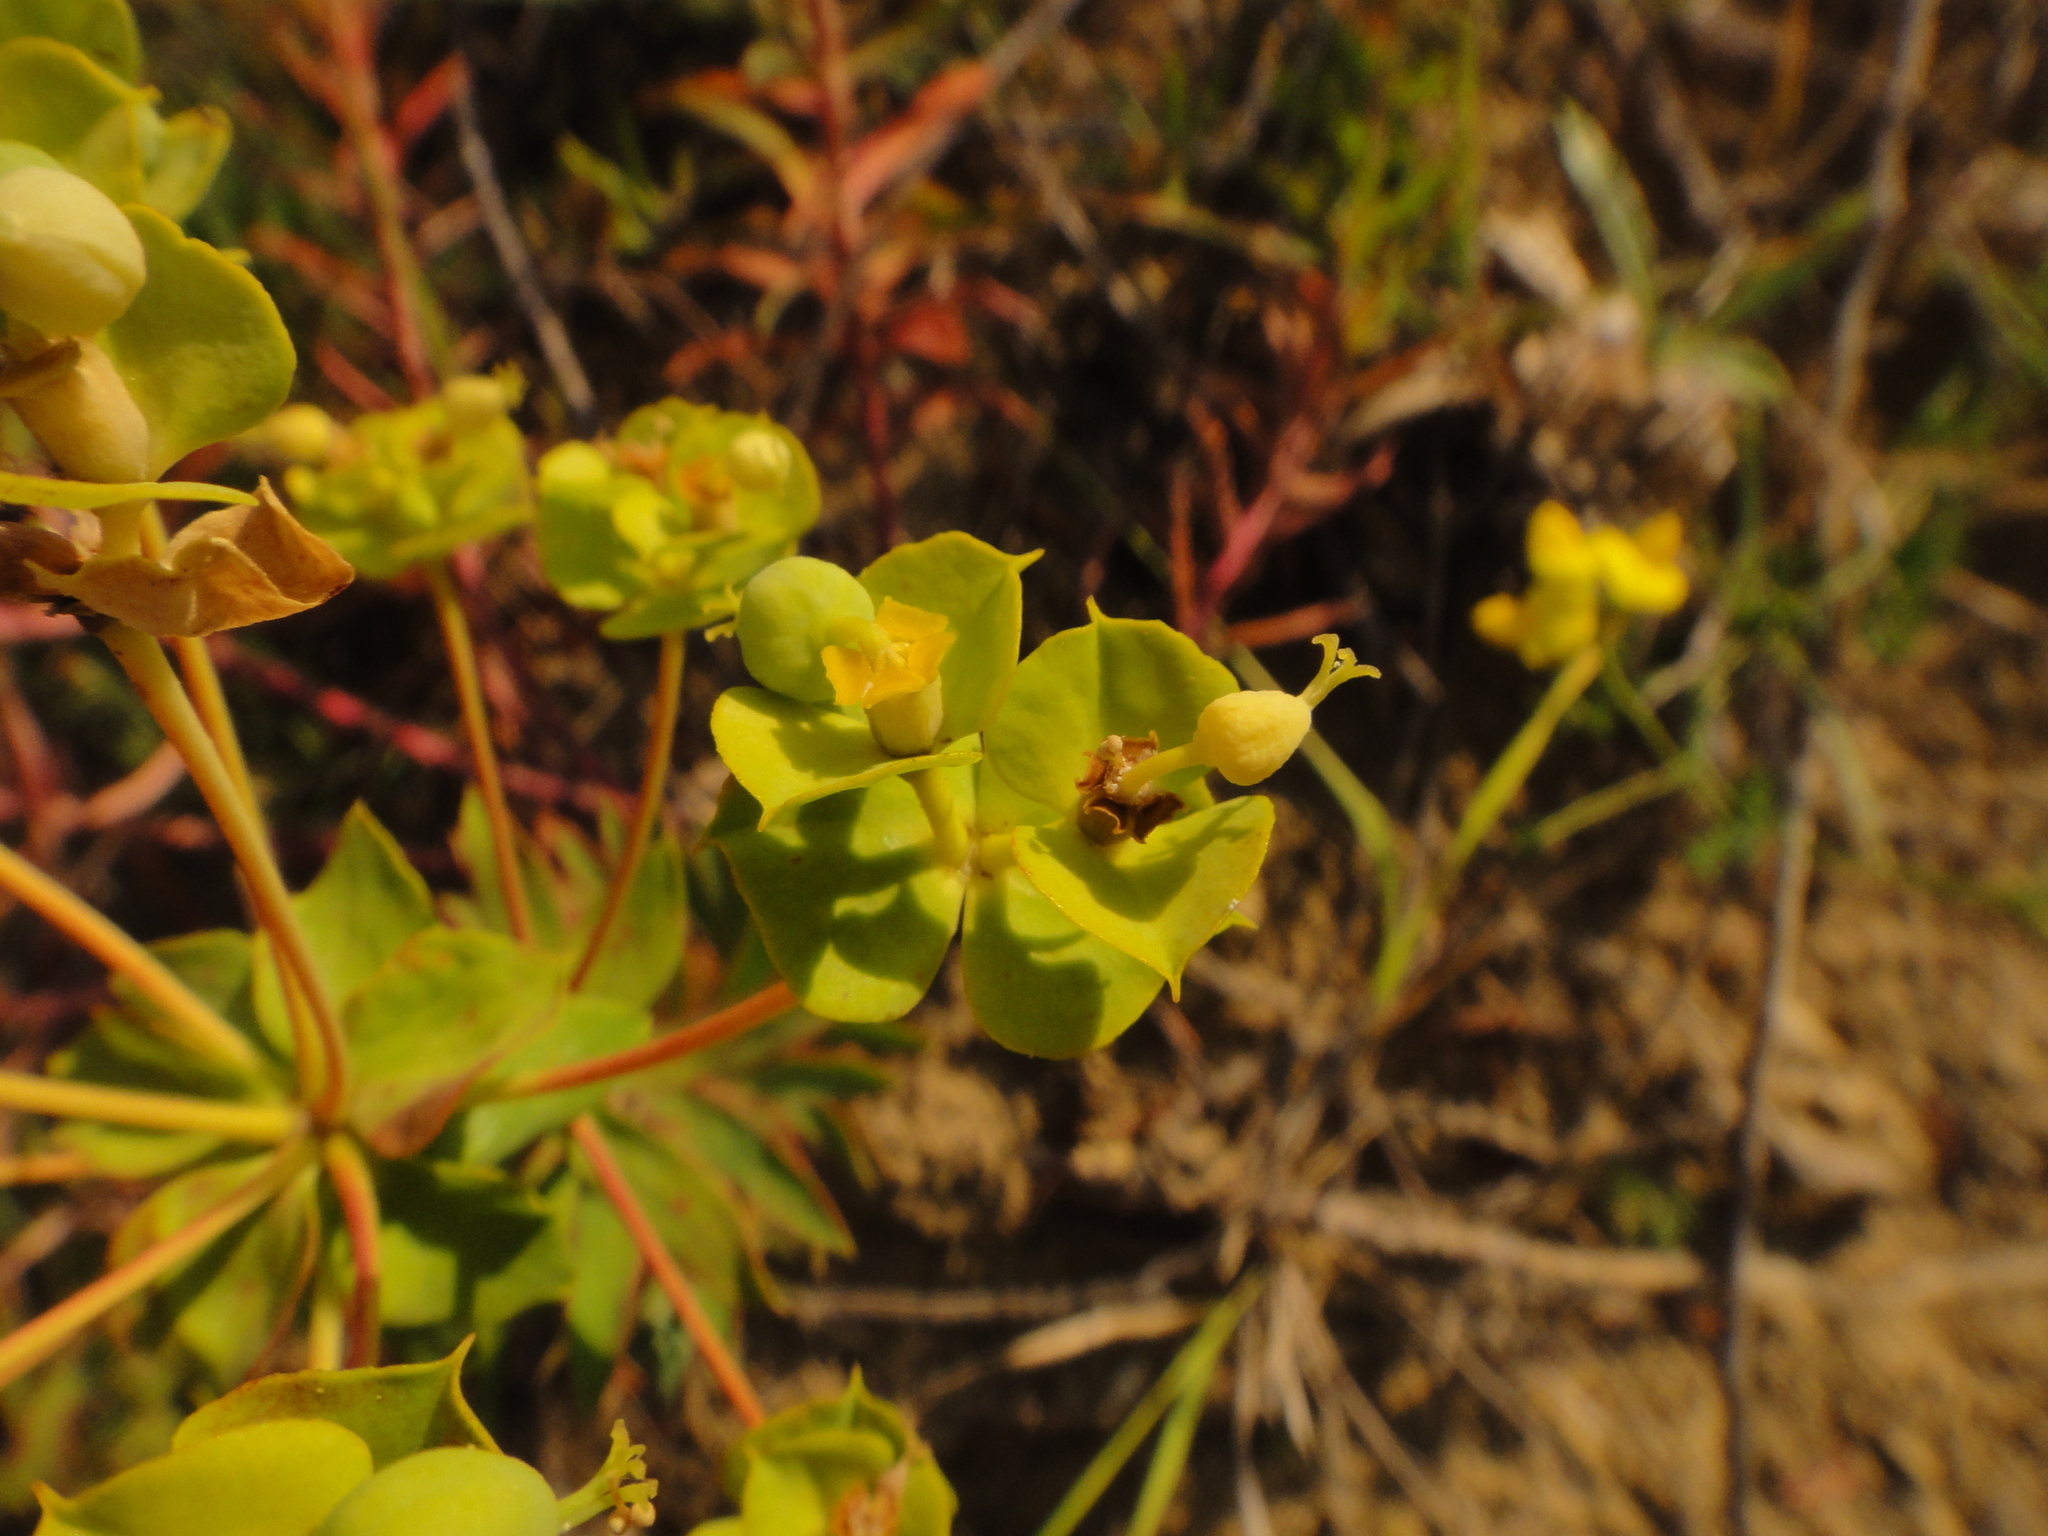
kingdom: Plantae
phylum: Tracheophyta
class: Magnoliopsida
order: Malpighiales
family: Euphorbiaceae
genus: Euphorbia
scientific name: Euphorbia nicaeensis
